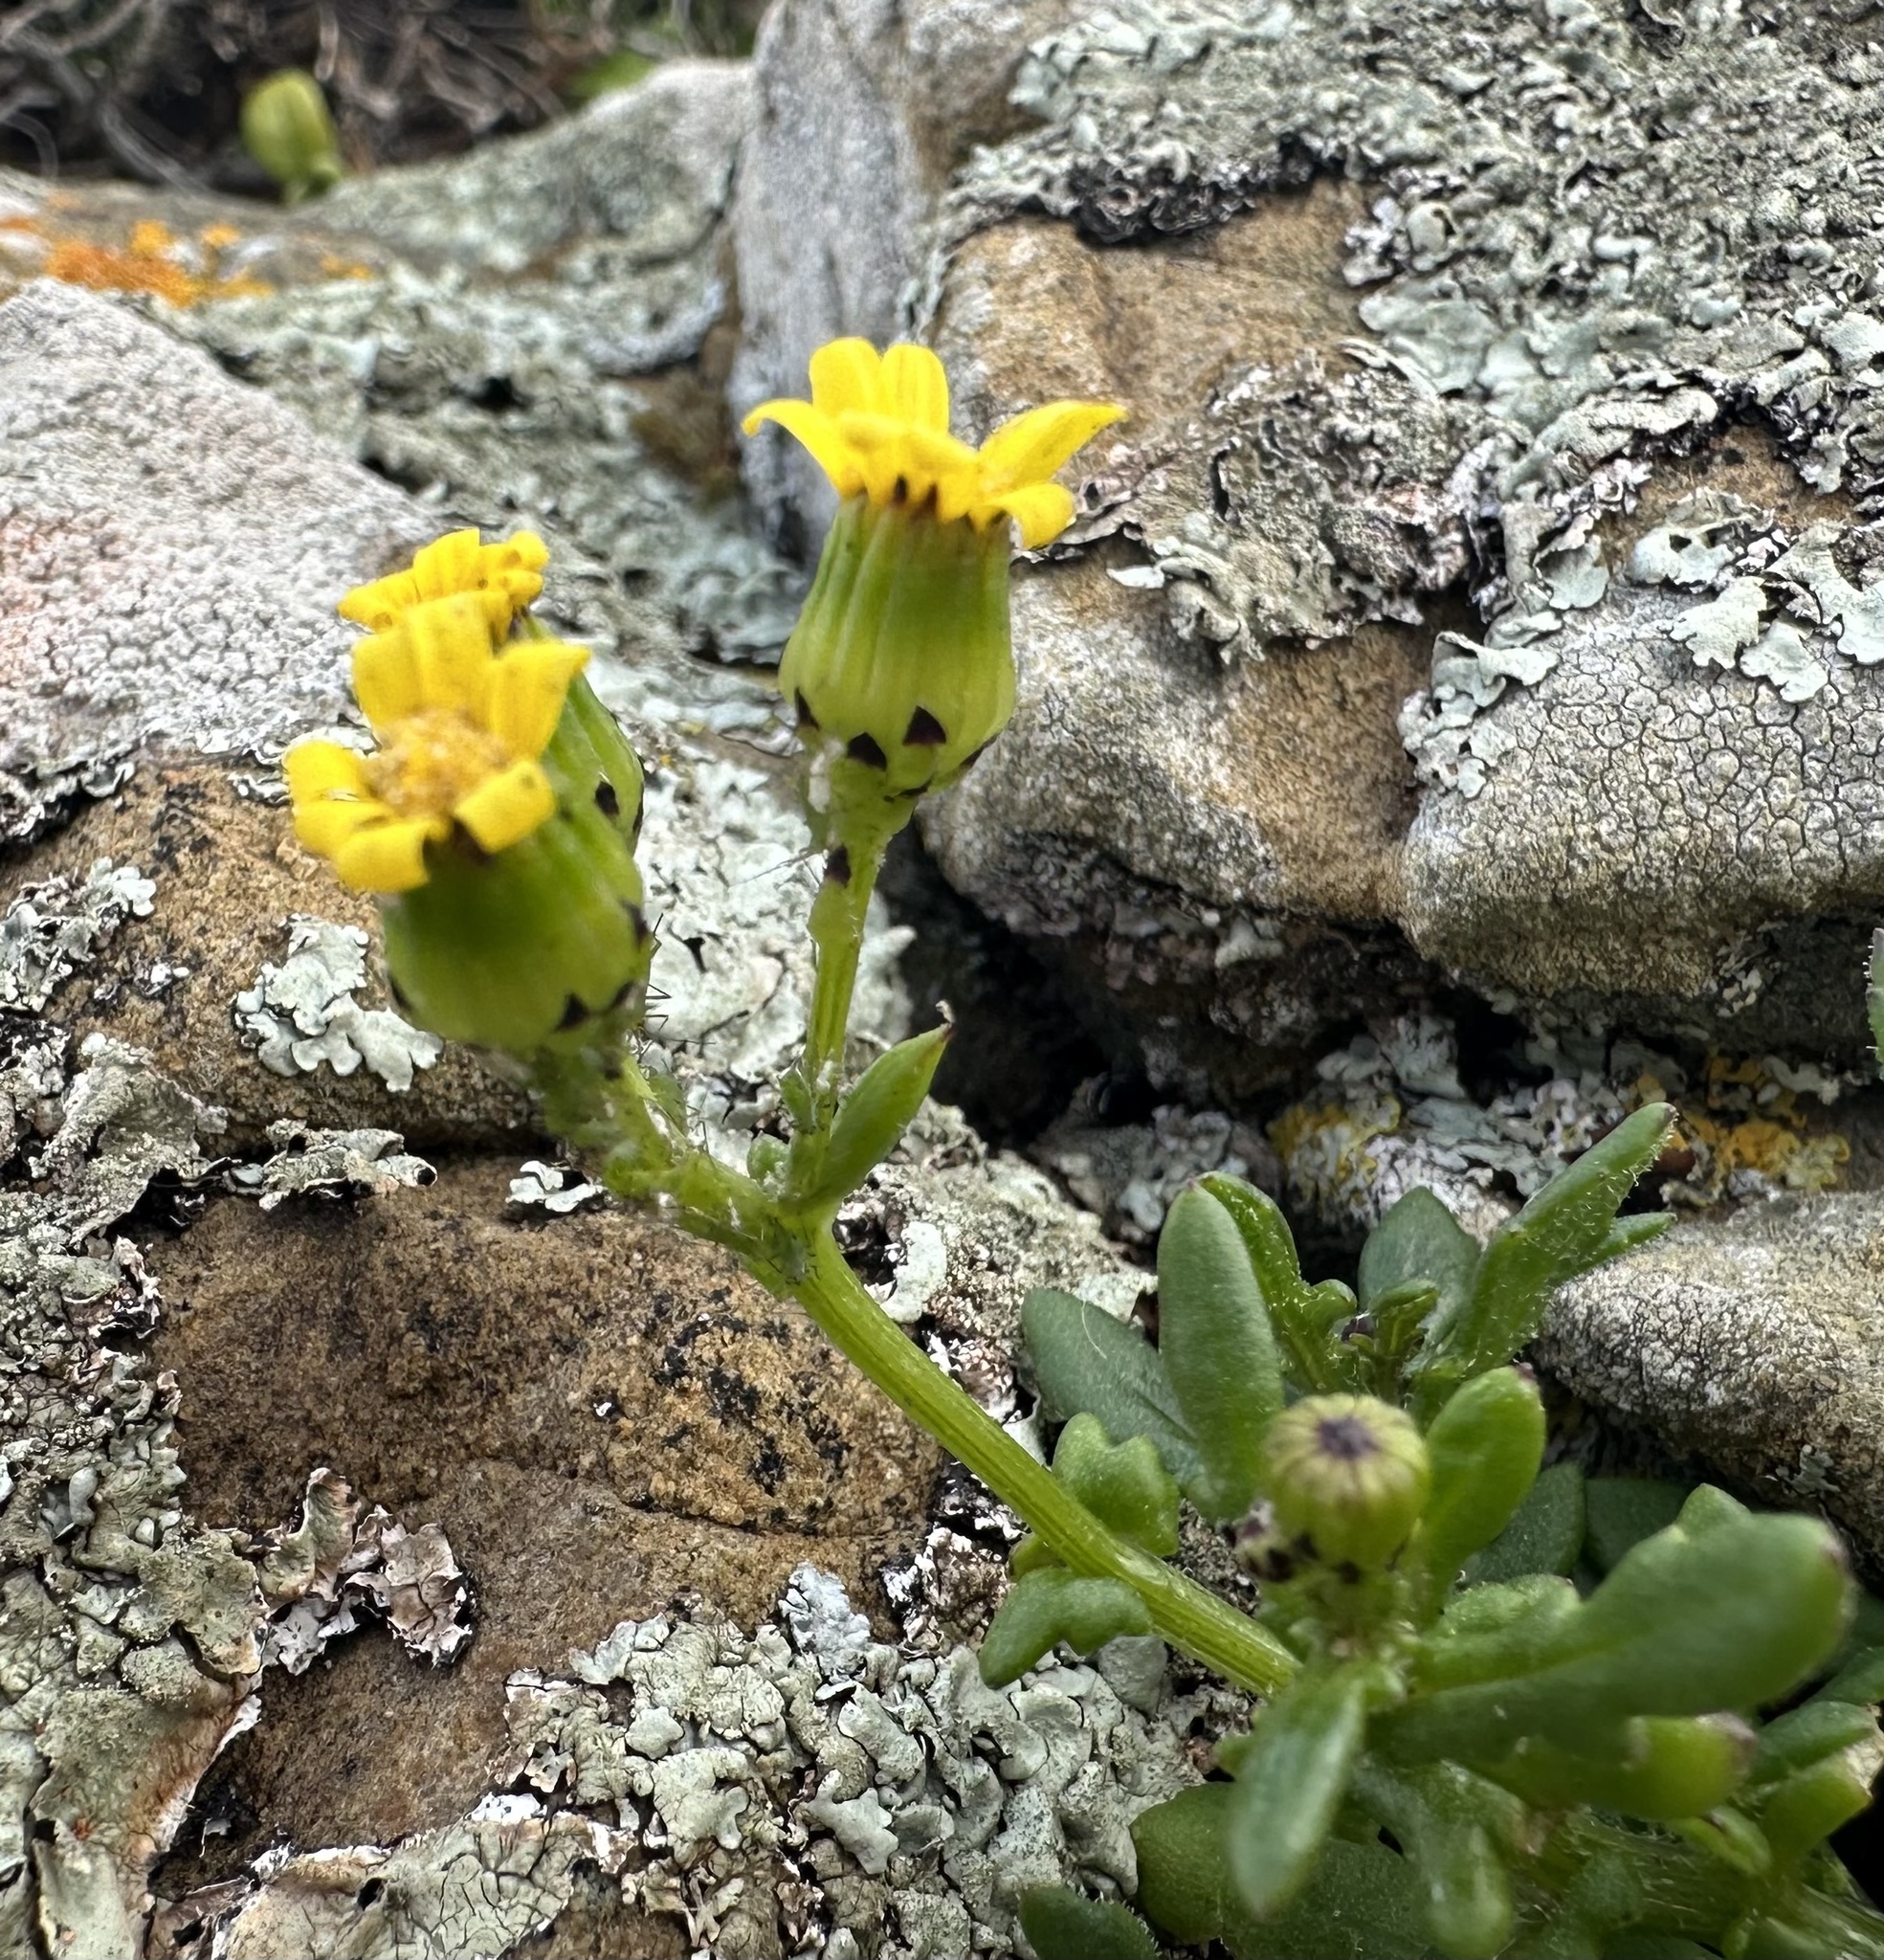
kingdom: Plantae
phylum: Tracheophyta
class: Magnoliopsida
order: Asterales
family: Asteraceae
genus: Senecio
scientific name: Senecio lautus
